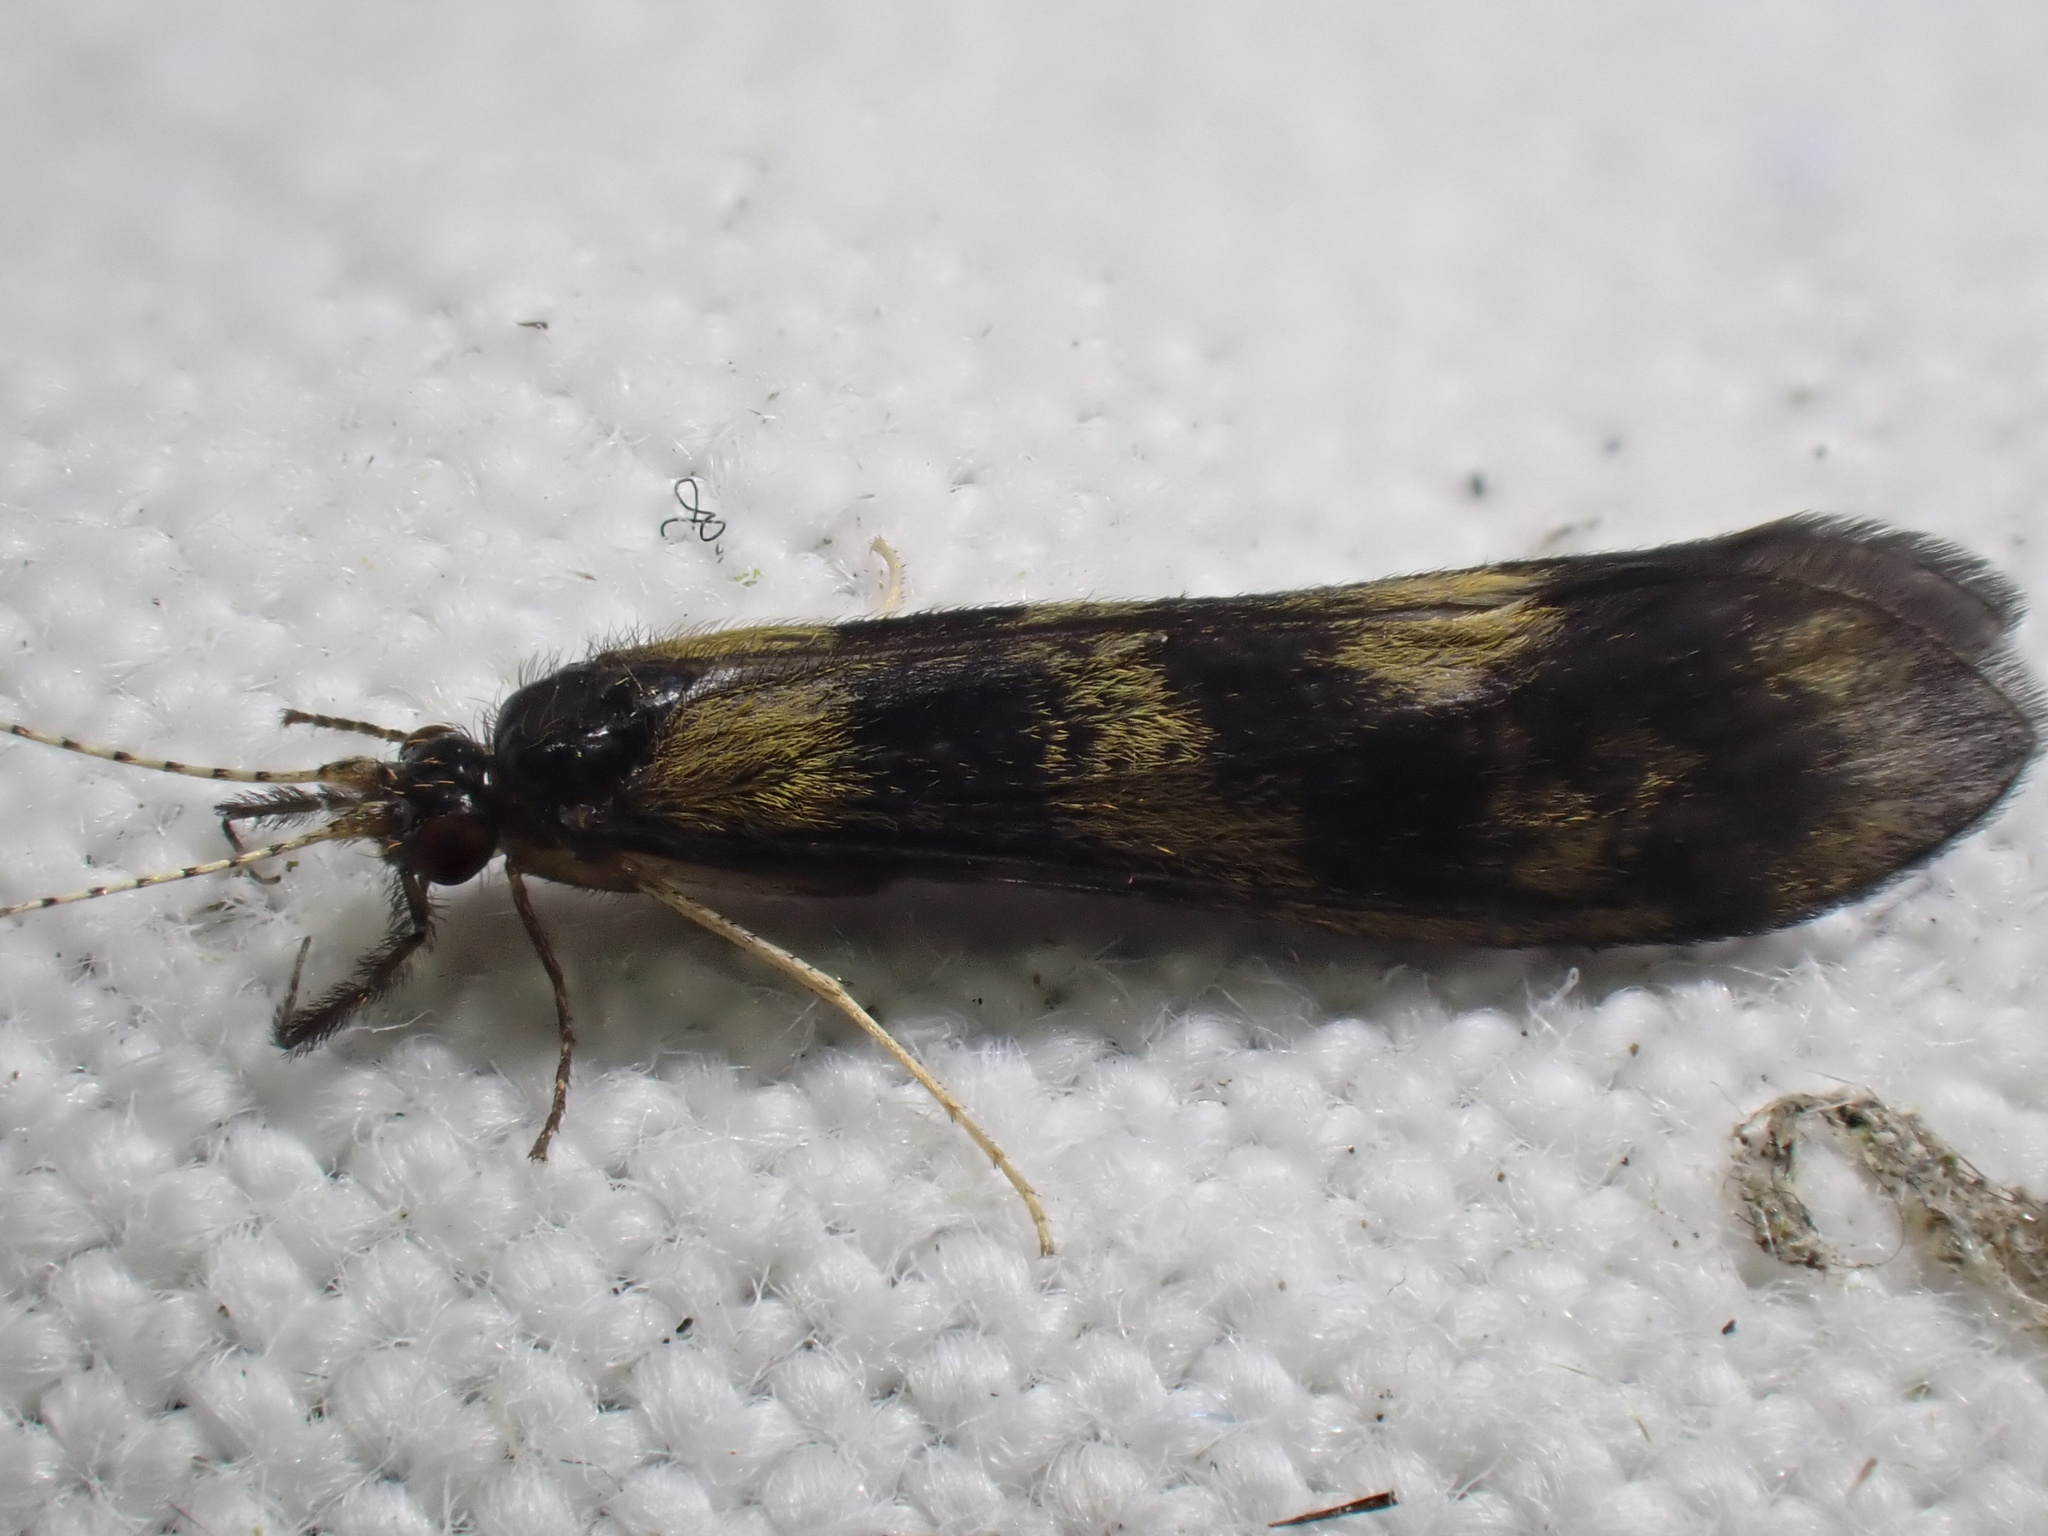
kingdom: Animalia
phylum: Arthropoda
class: Insecta
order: Trichoptera
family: Leptoceridae
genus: Mystacides
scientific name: Mystacides longicornis
